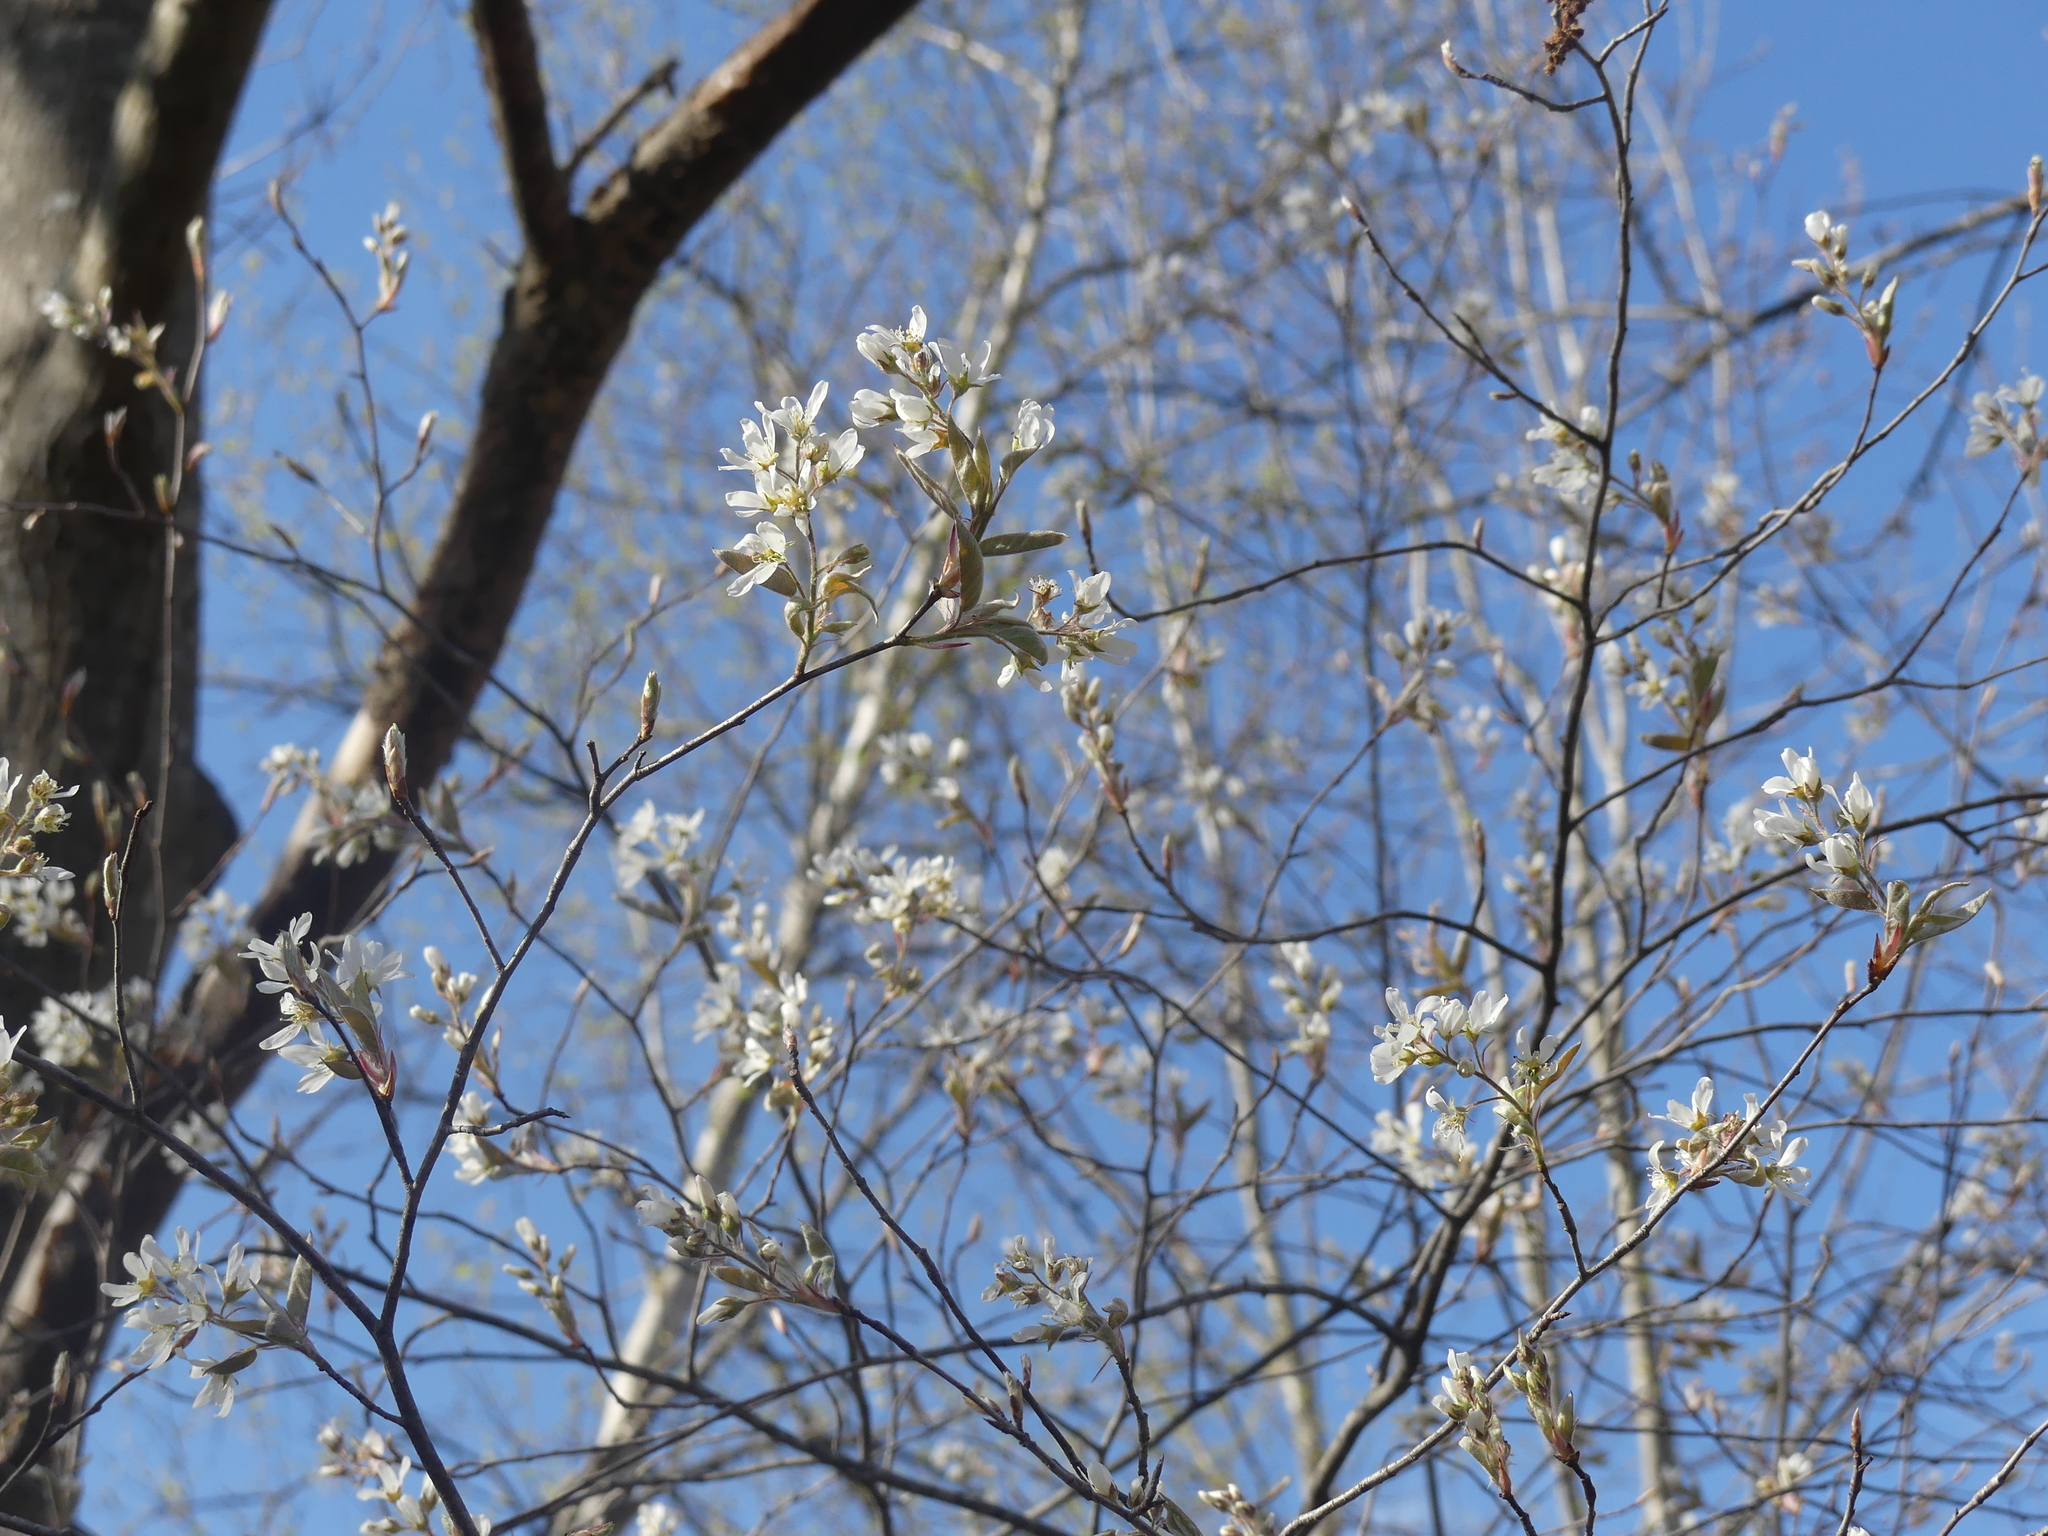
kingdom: Plantae
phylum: Tracheophyta
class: Magnoliopsida
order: Rosales
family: Rosaceae
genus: Amelanchier
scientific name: Amelanchier arborea
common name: Downy serviceberry
